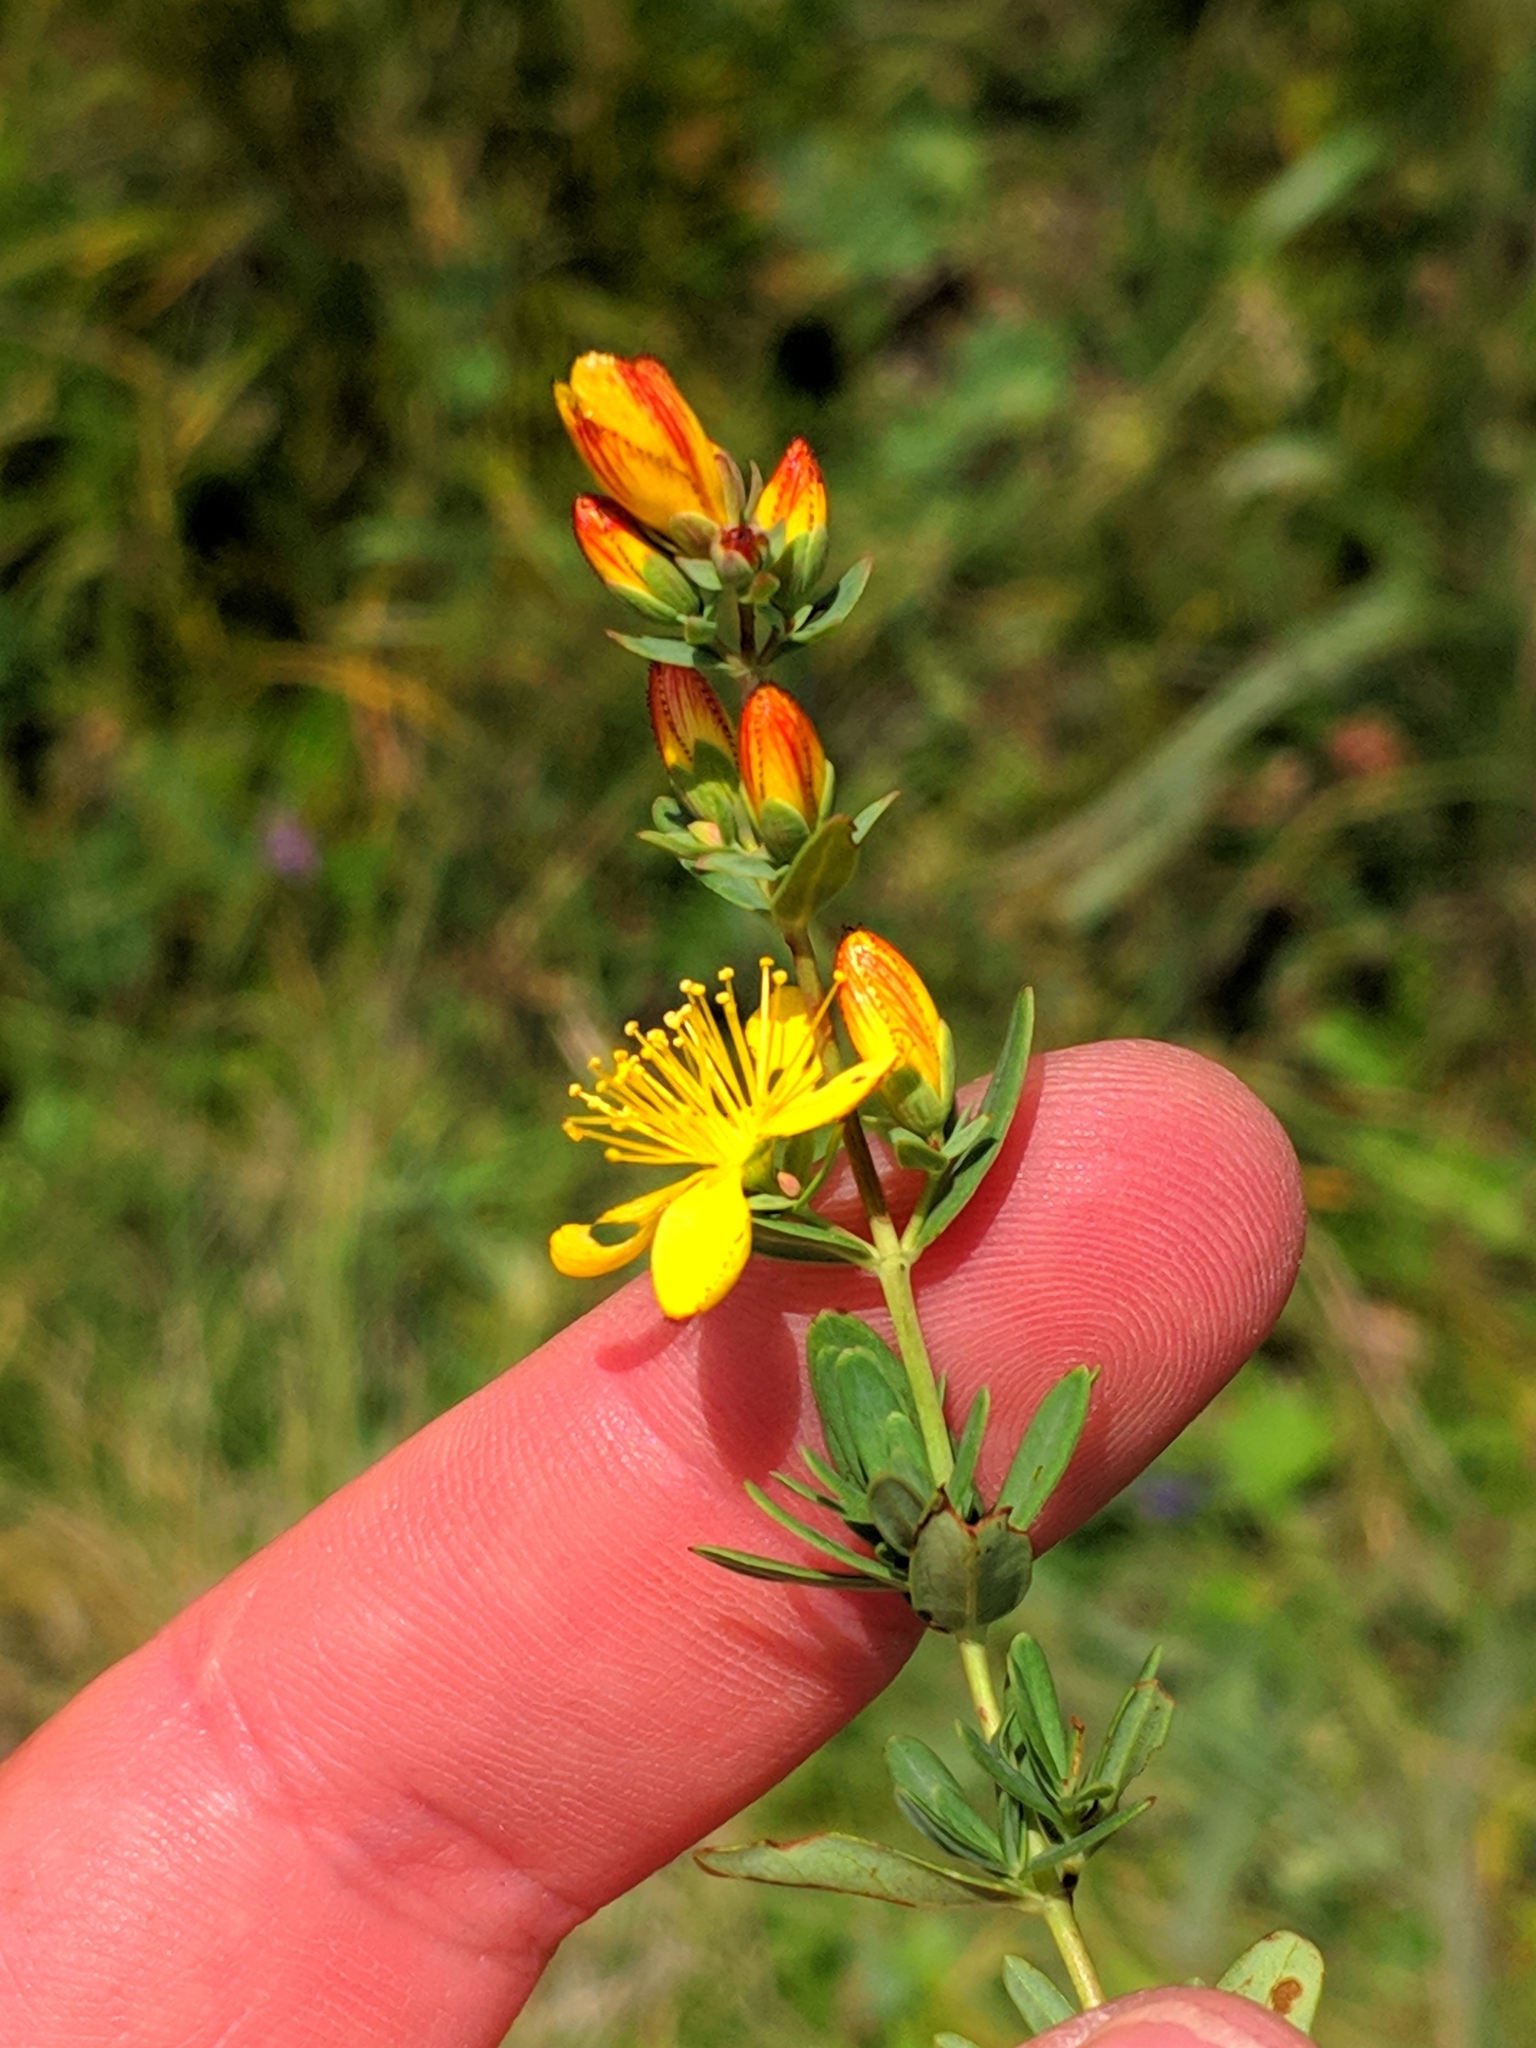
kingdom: Plantae
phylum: Tracheophyta
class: Magnoliopsida
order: Malpighiales
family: Hypericaceae
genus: Hypericum
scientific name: Hypericum linarioides
